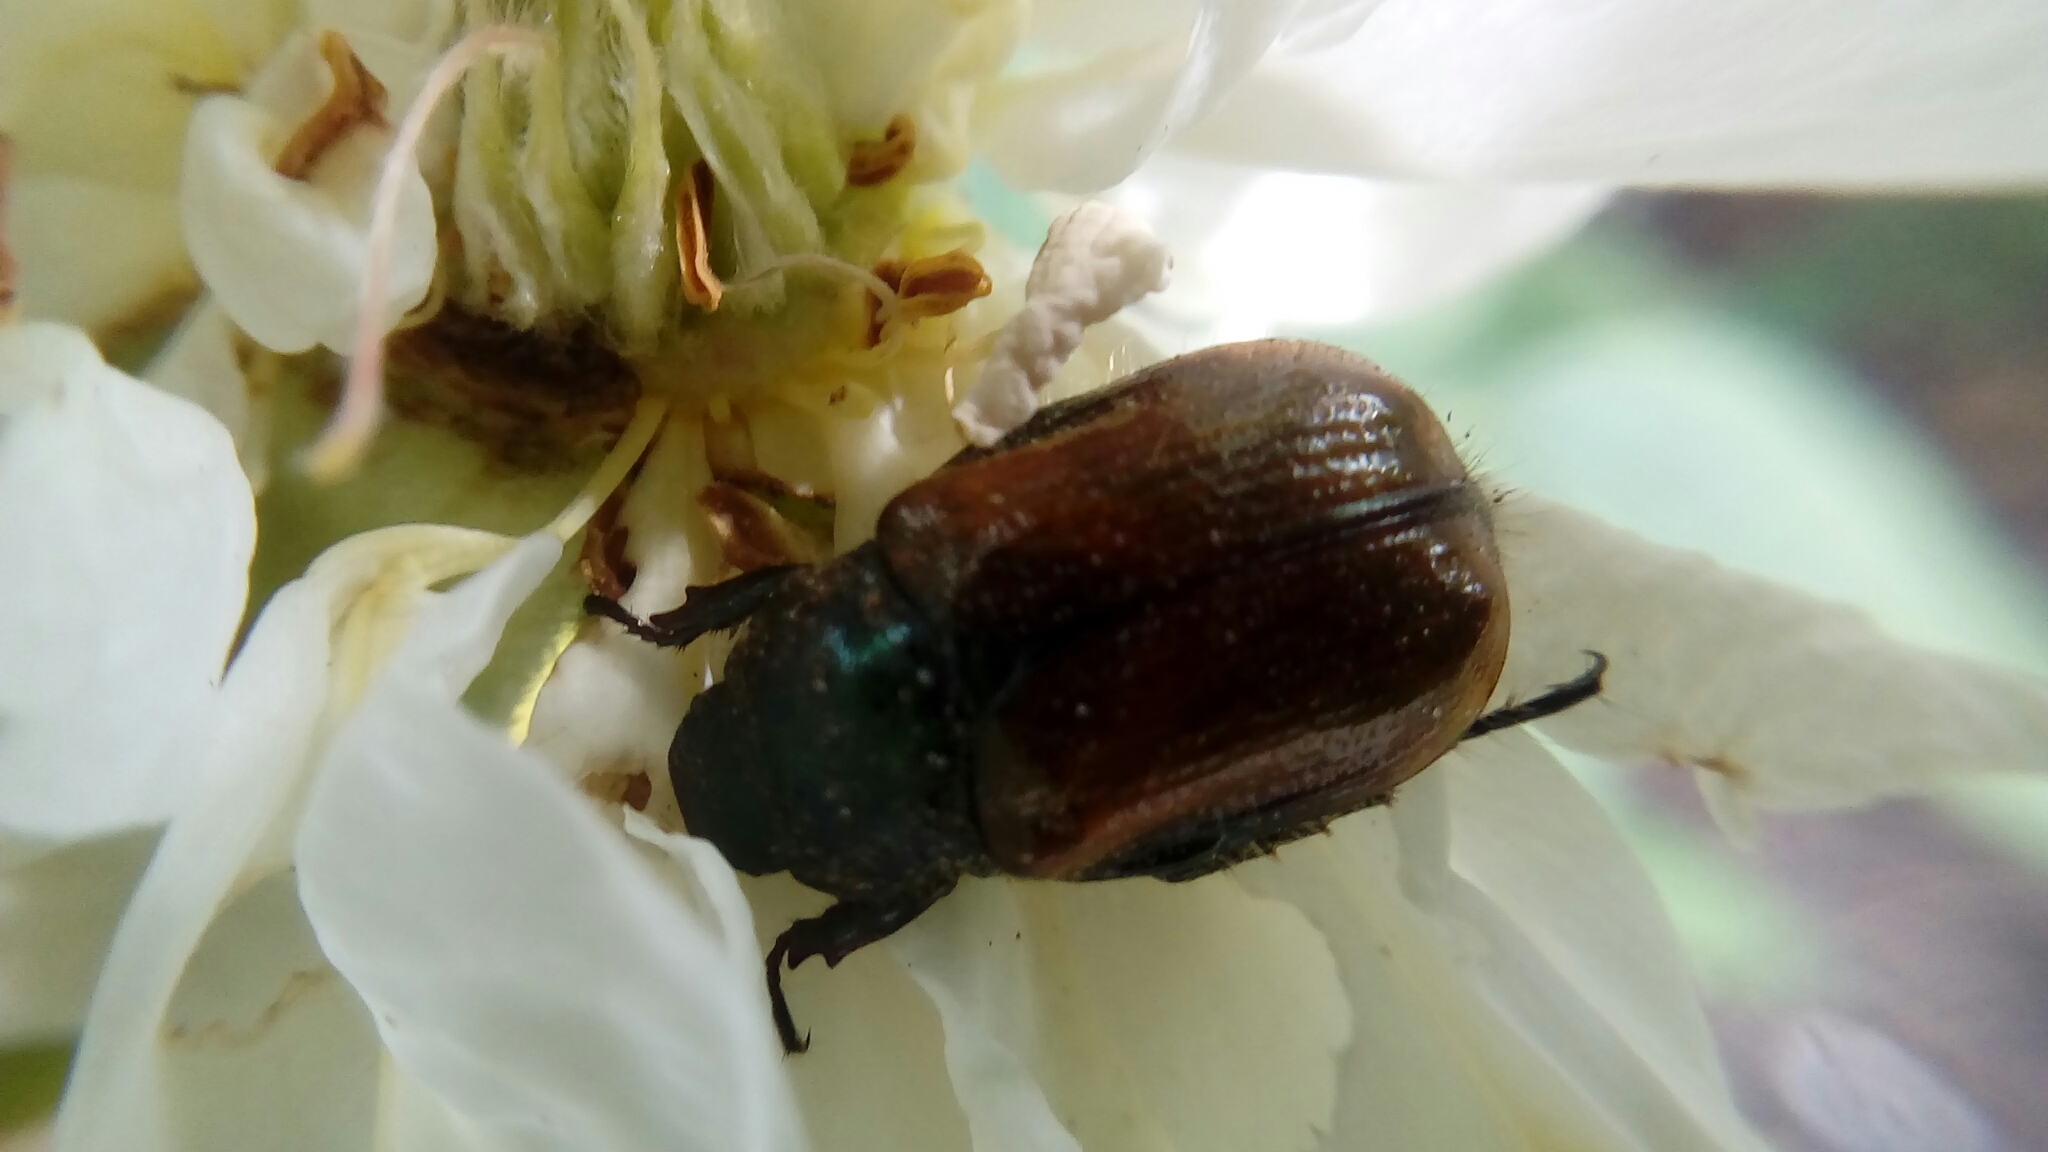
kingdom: Animalia
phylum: Arthropoda
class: Insecta
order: Coleoptera
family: Scarabaeidae
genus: Phyllopertha
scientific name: Phyllopertha horticola
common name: Garden chafer
